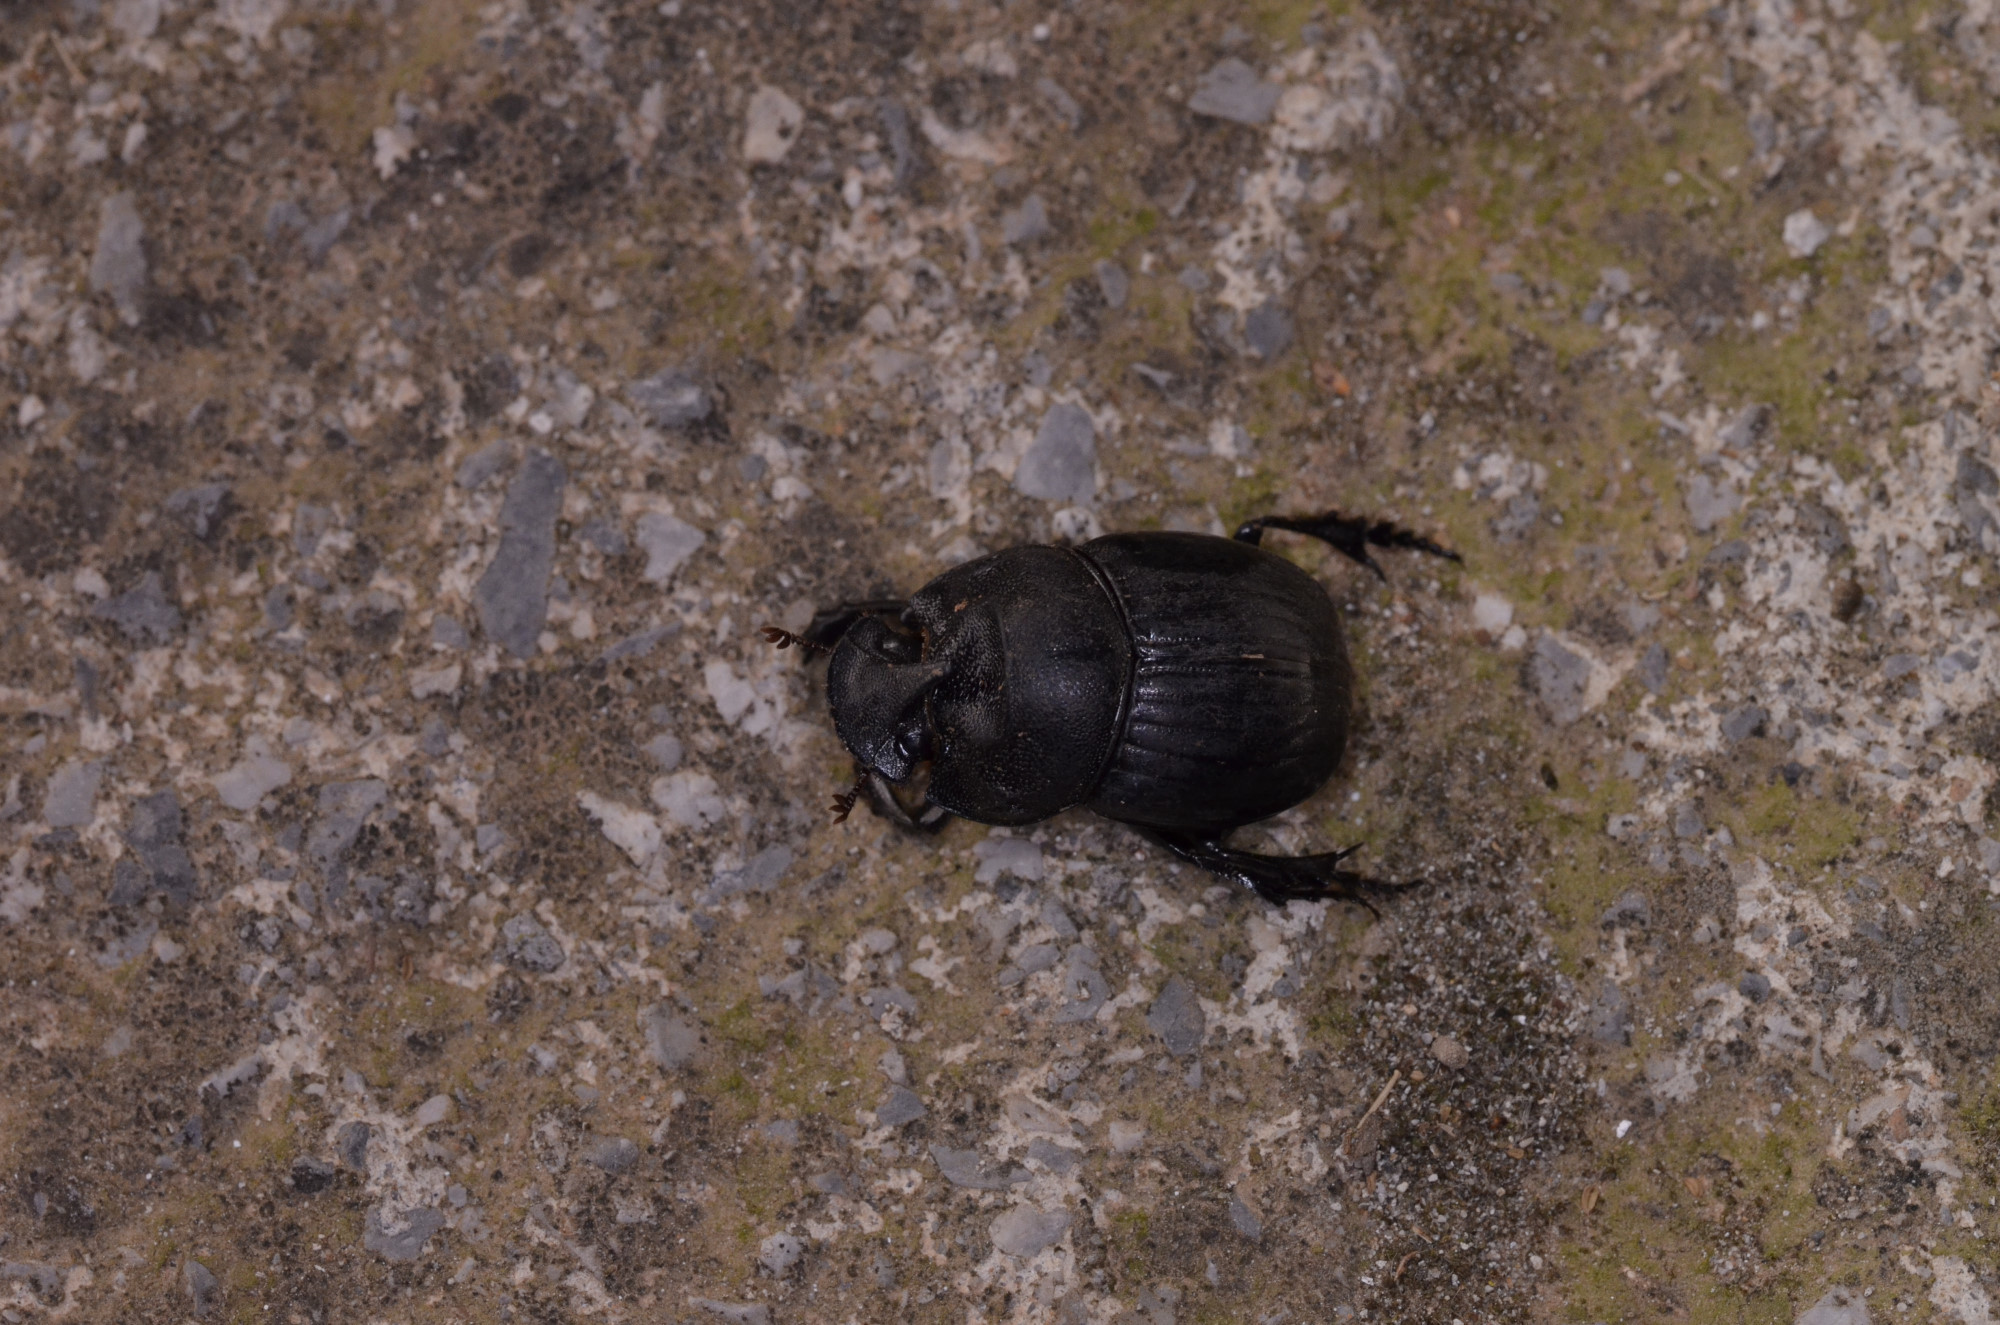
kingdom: Animalia
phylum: Arthropoda
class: Insecta
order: Coleoptera
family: Scarabaeidae
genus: Copris
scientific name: Copris hispanus
